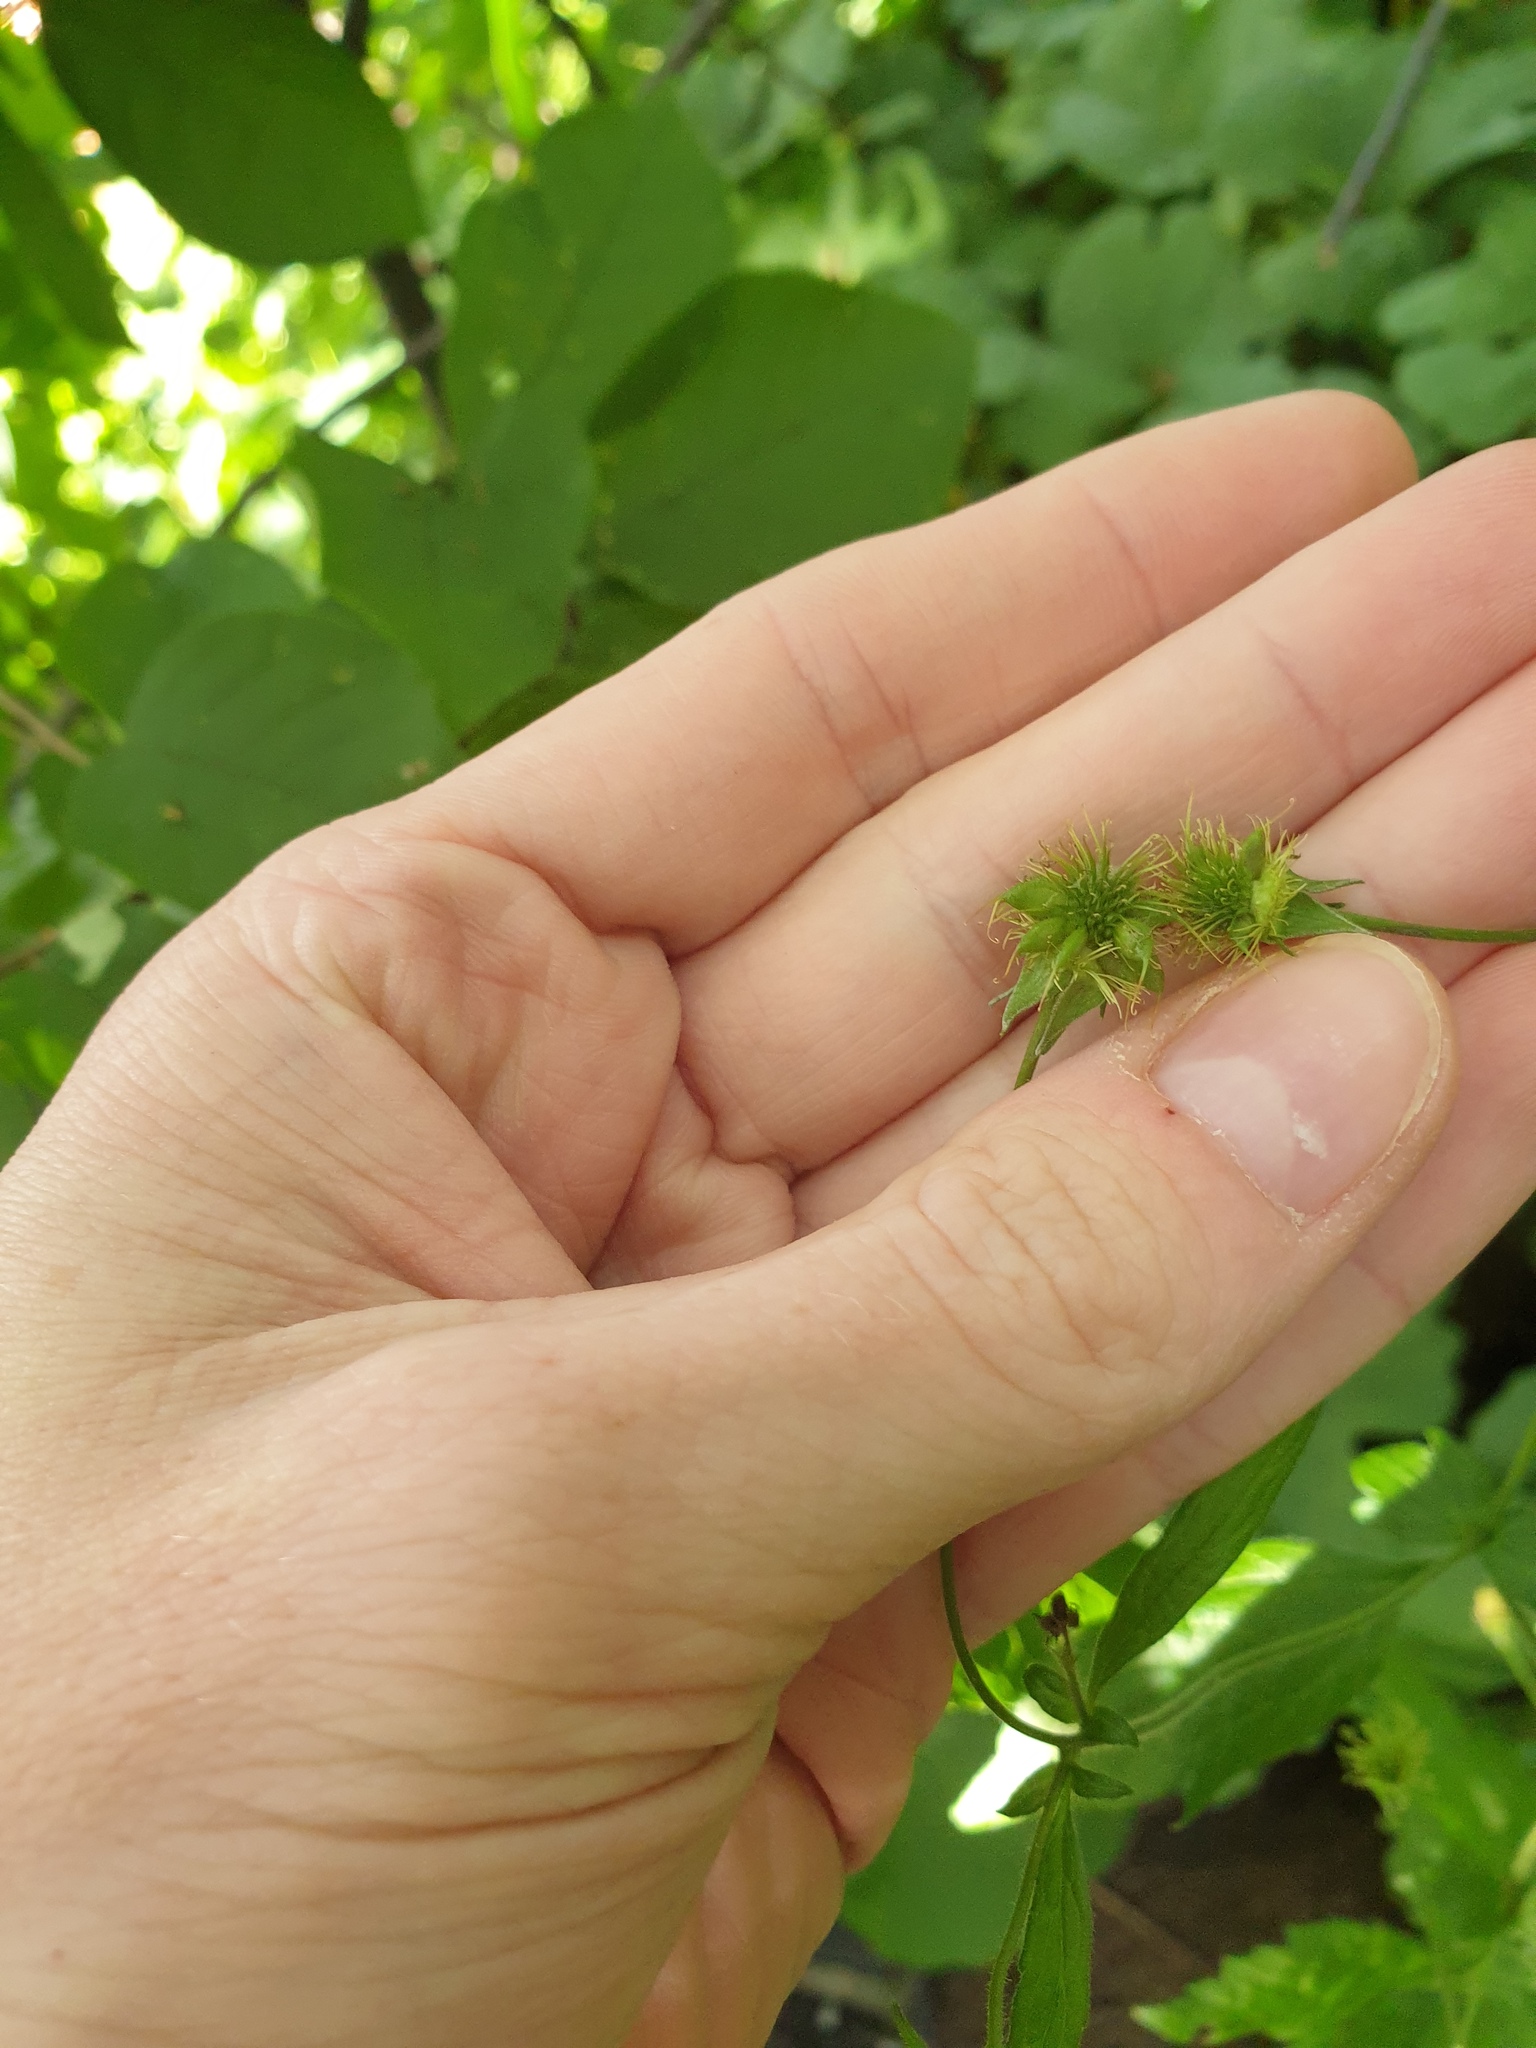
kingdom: Plantae
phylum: Tracheophyta
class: Magnoliopsida
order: Rosales
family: Rosaceae
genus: Geum
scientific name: Geum catlingii
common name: Catling's avens
